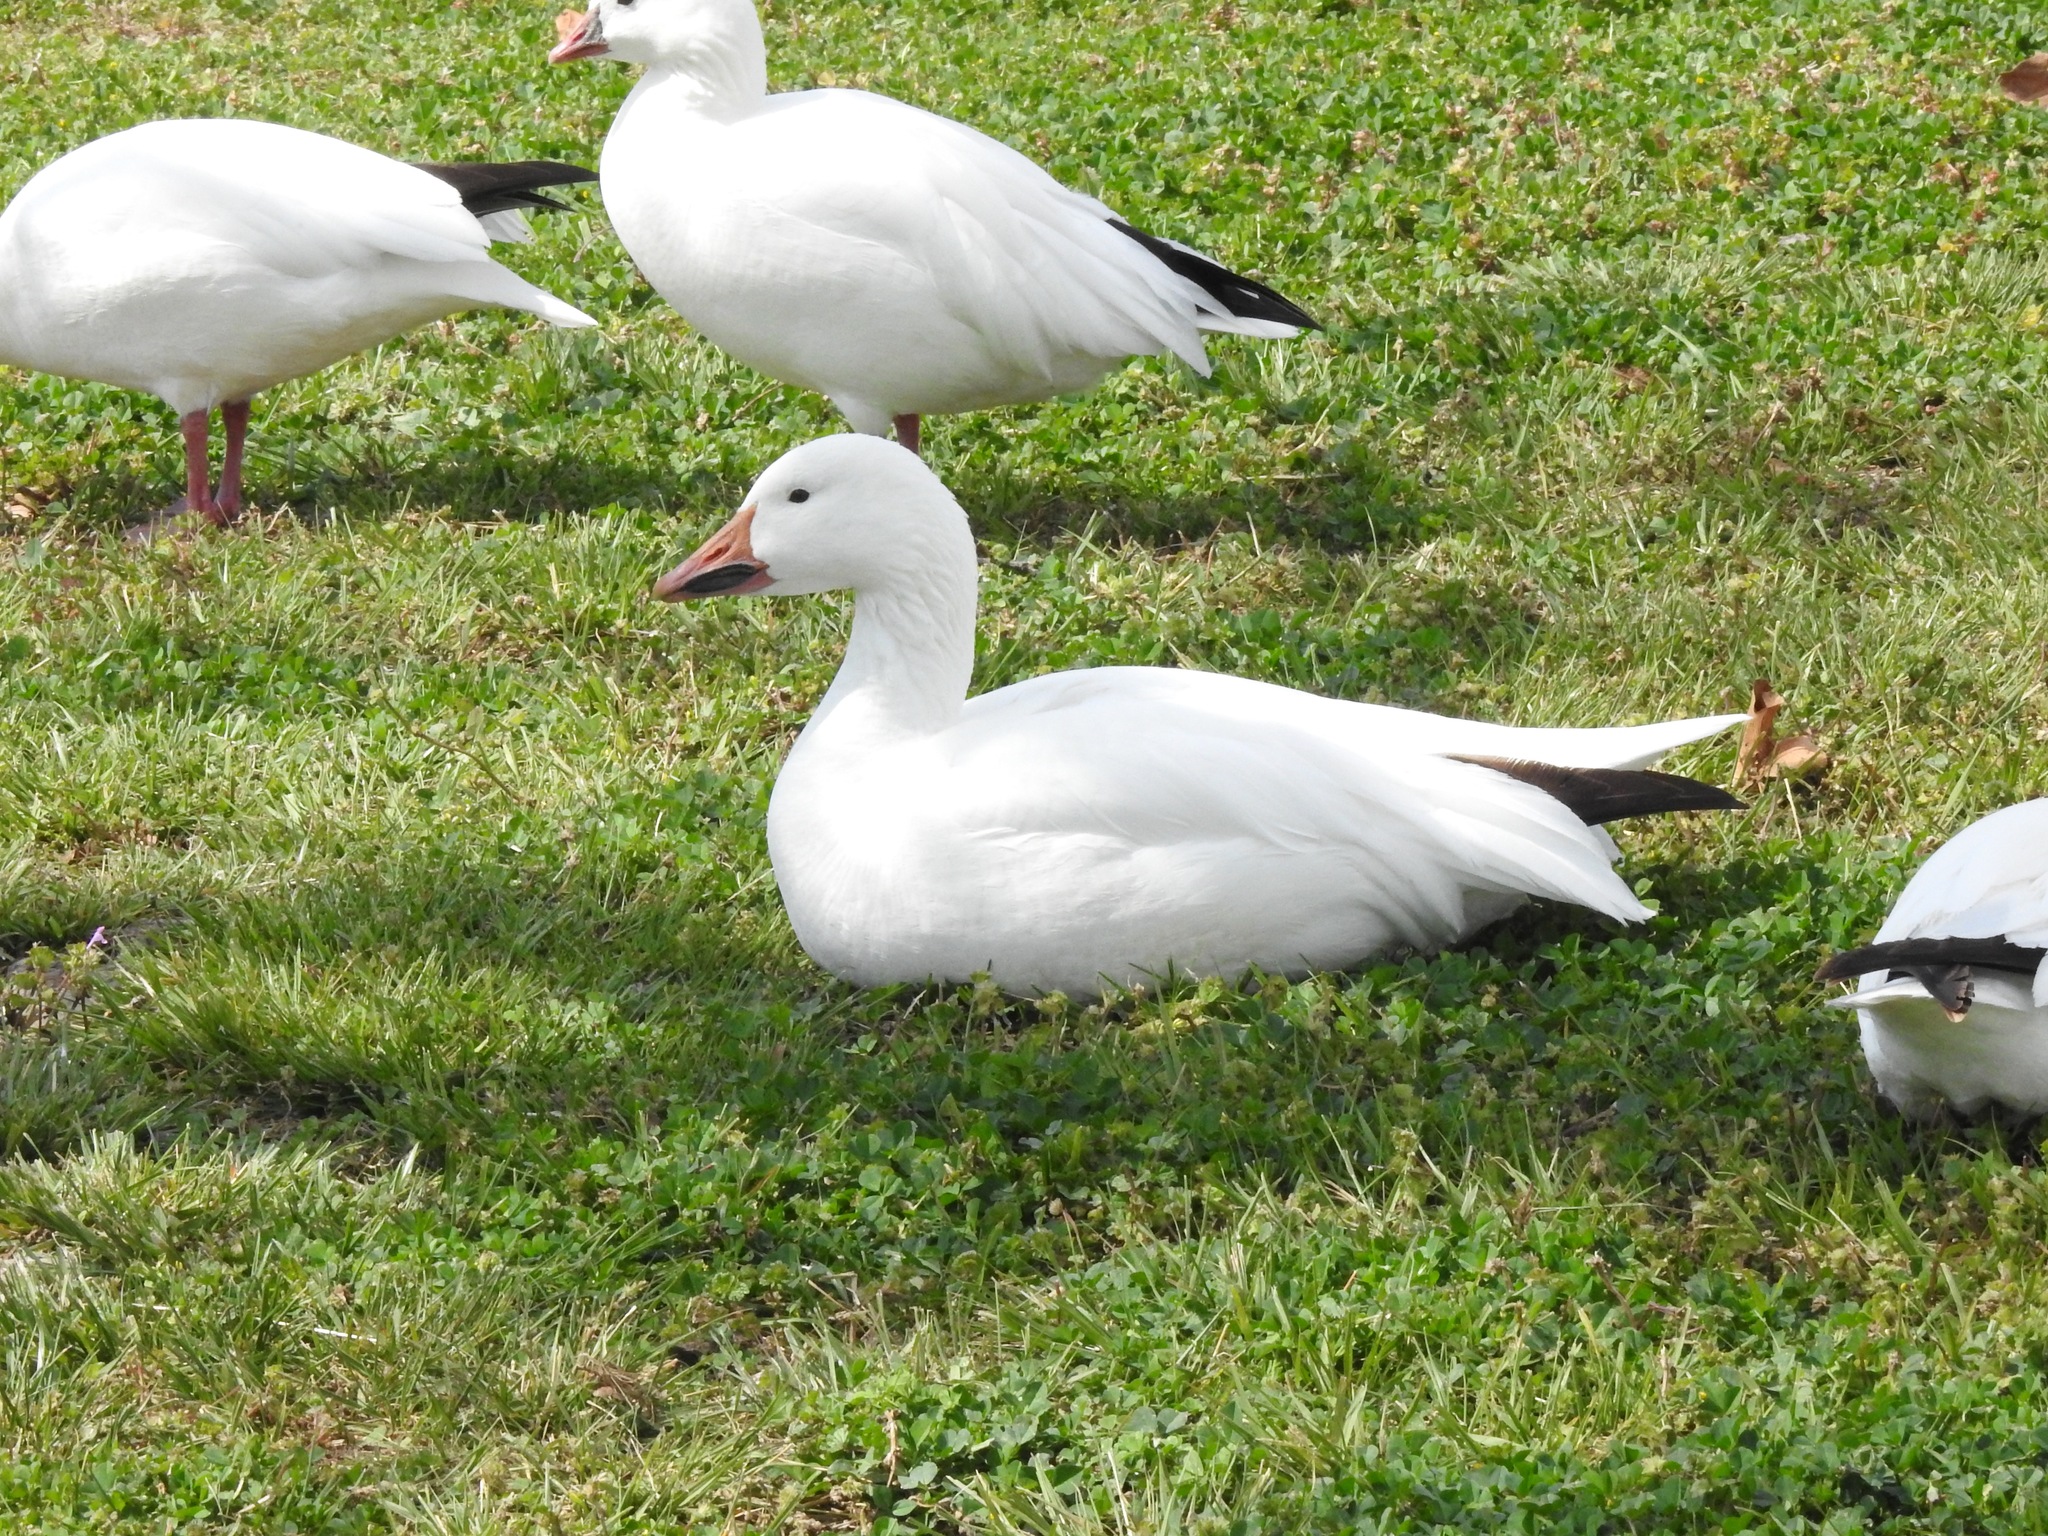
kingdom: Animalia
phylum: Chordata
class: Aves
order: Anseriformes
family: Anatidae
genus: Anser
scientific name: Anser caerulescens
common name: Snow goose
